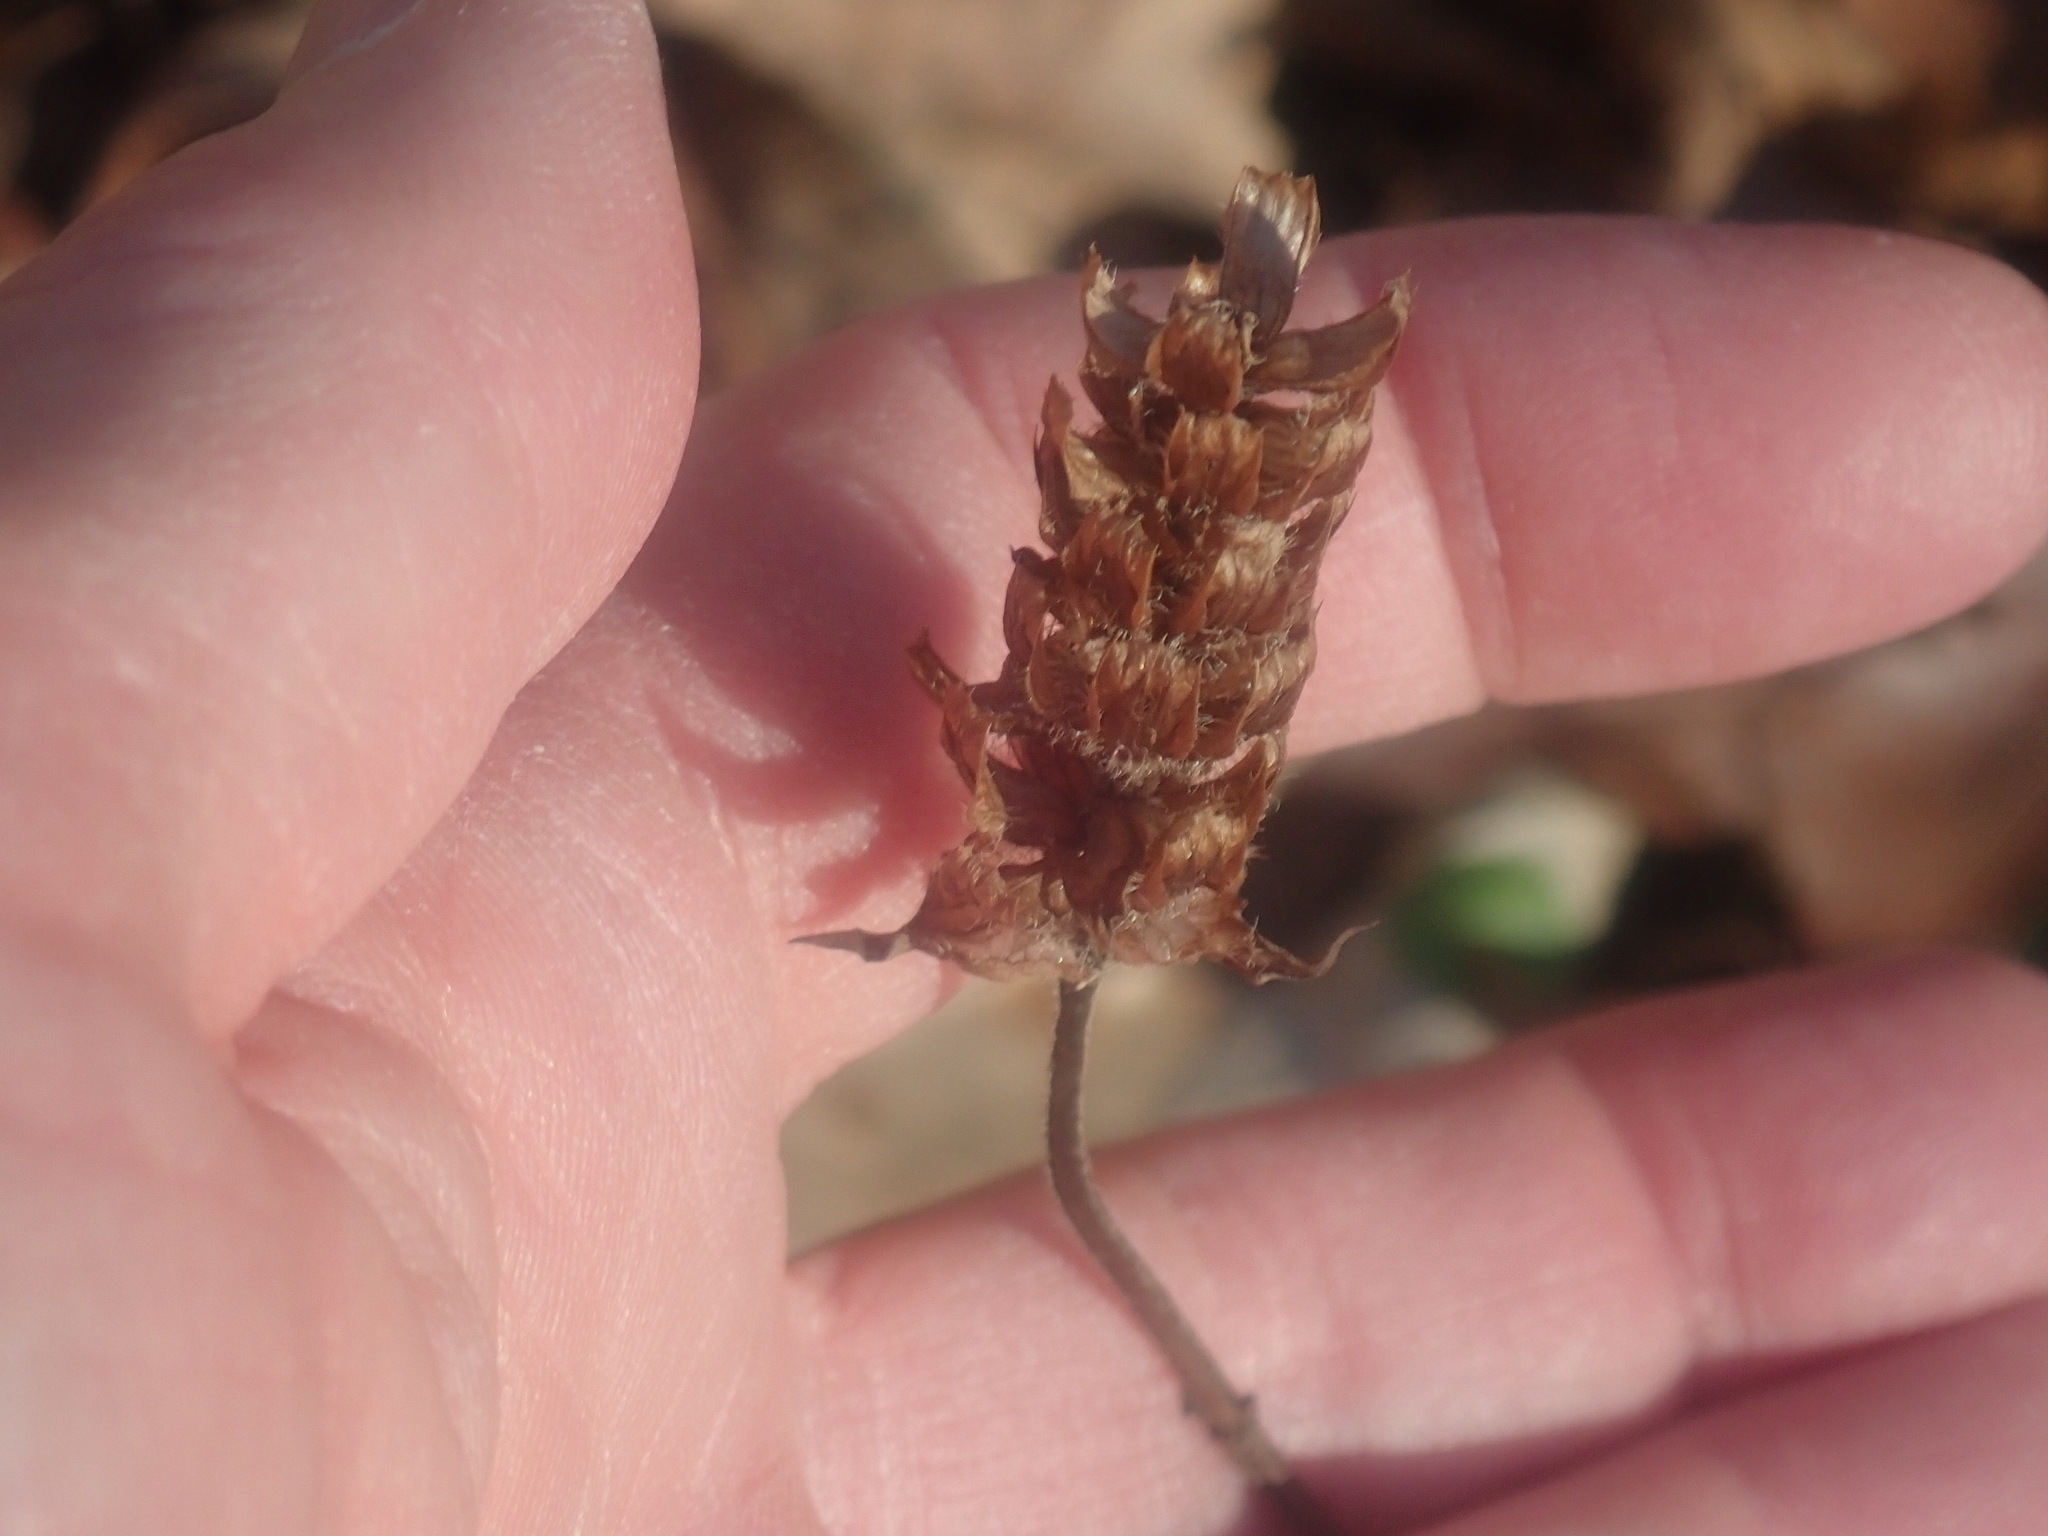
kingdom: Plantae
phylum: Tracheophyta
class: Magnoliopsida
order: Lamiales
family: Lamiaceae
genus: Prunella
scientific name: Prunella vulgaris
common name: Heal-all
